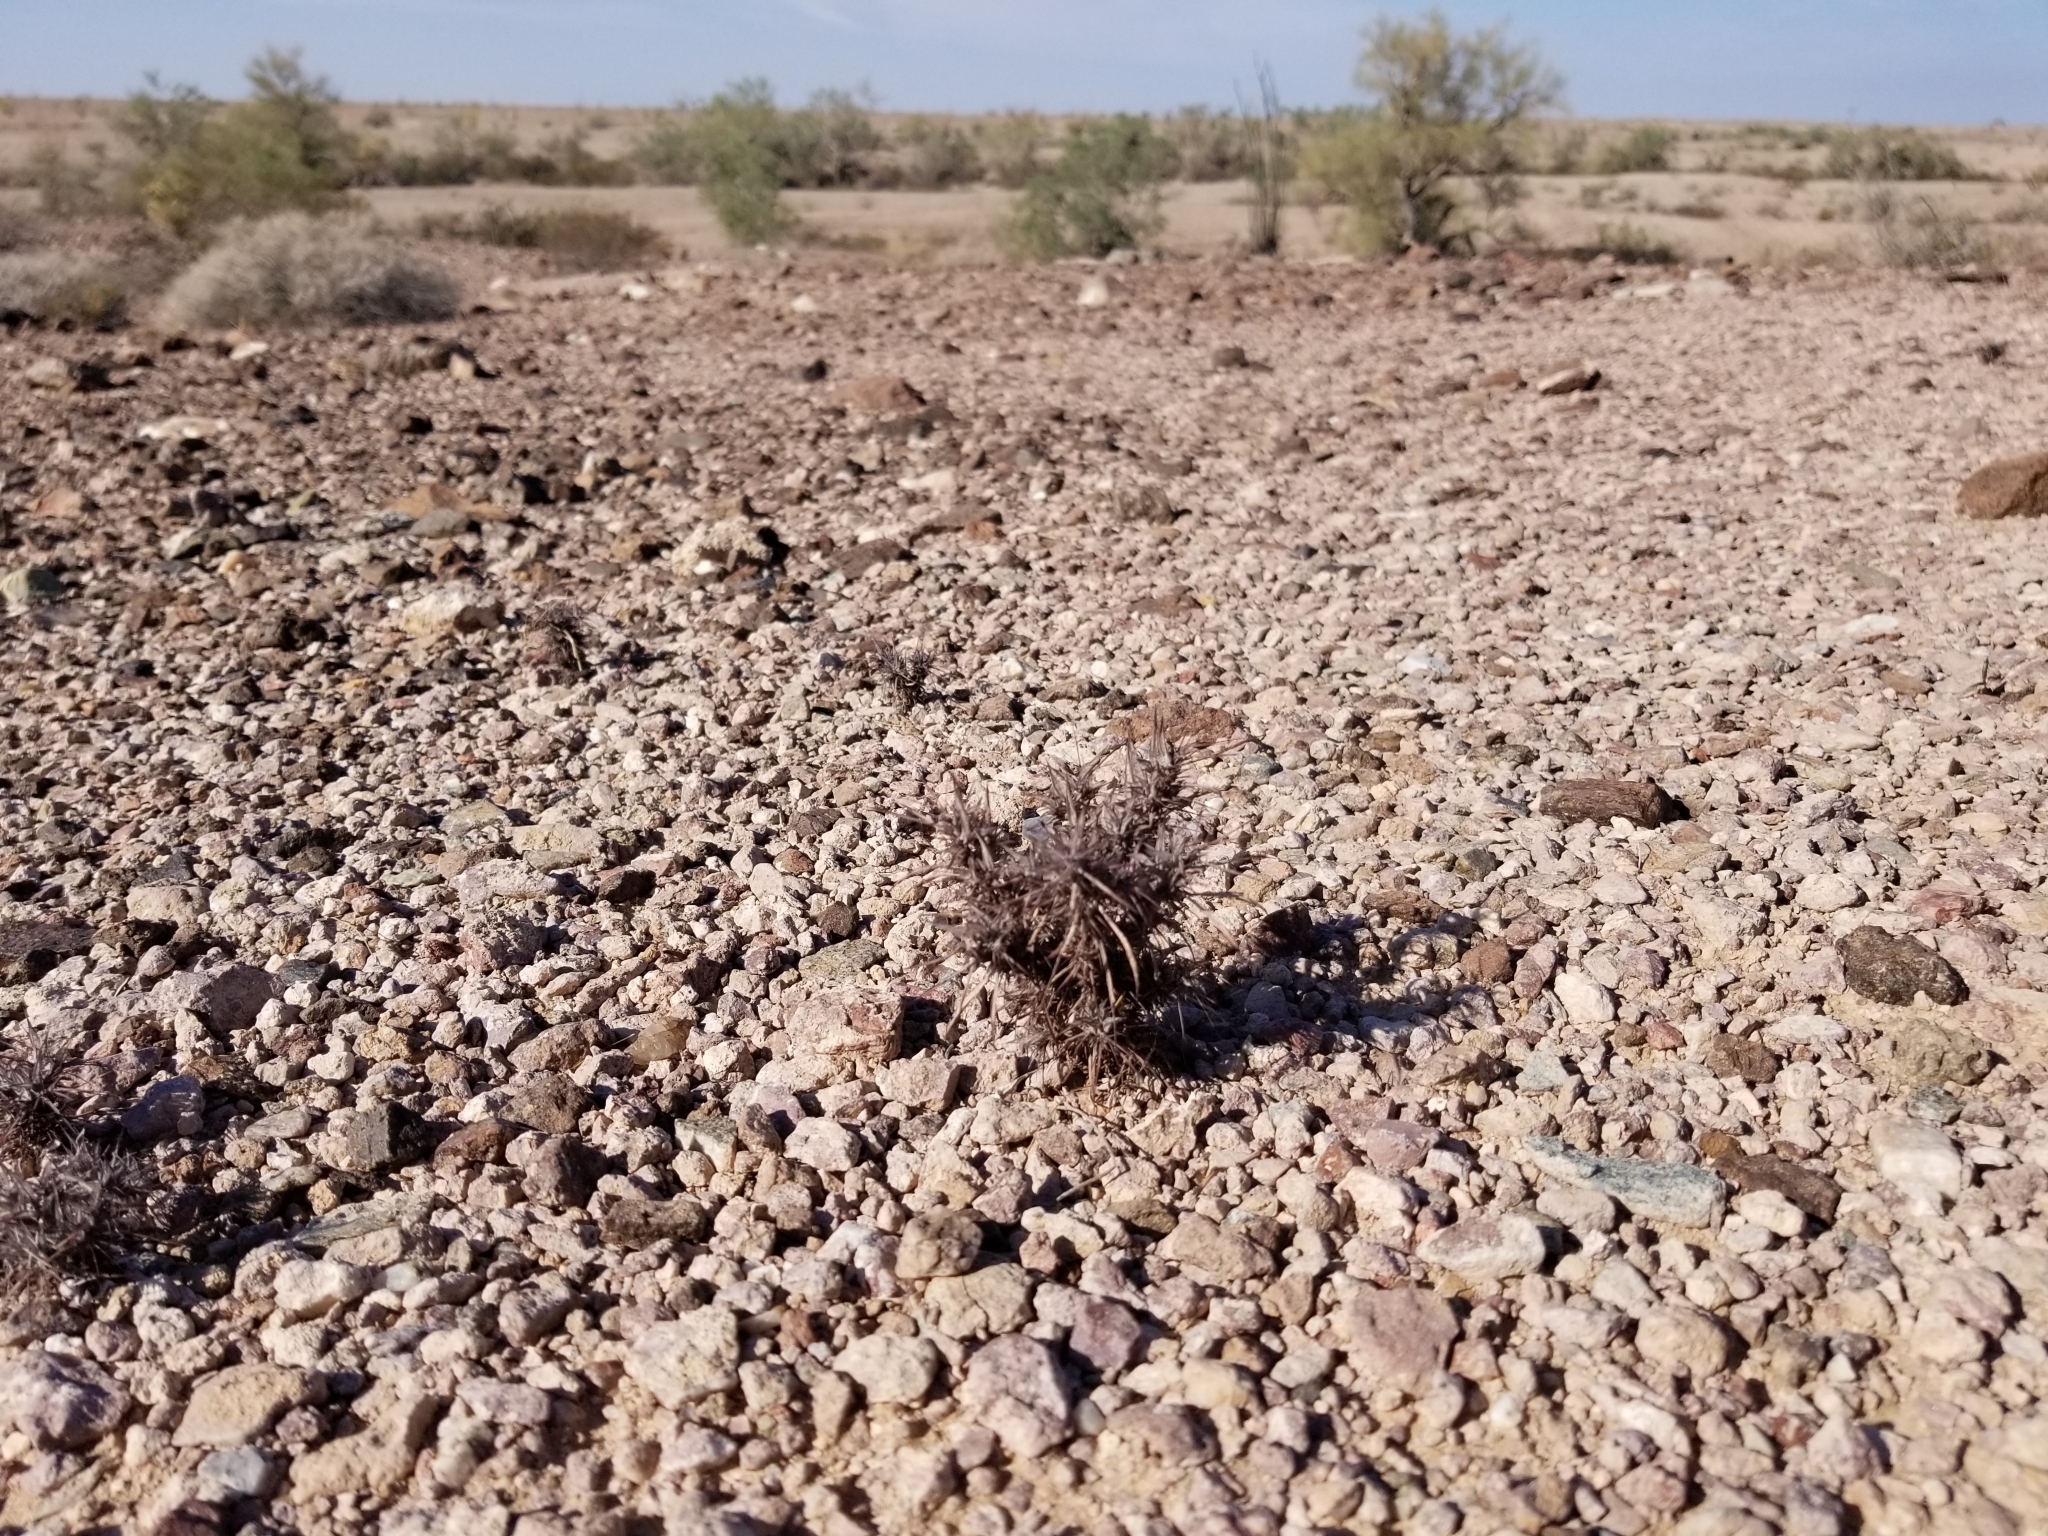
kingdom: Plantae
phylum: Tracheophyta
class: Magnoliopsida
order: Caryophyllales
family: Polygonaceae
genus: Chorizanthe
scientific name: Chorizanthe rigida
